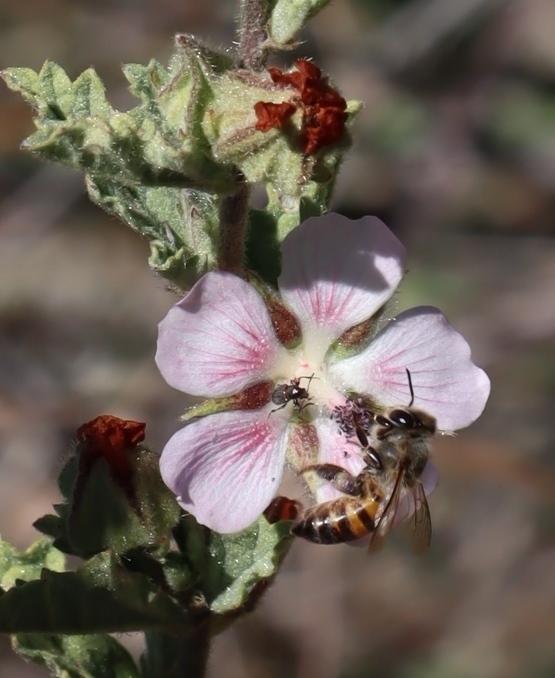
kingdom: Animalia
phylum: Arthropoda
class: Insecta
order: Hymenoptera
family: Apidae
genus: Apis
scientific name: Apis mellifera
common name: Honey bee
